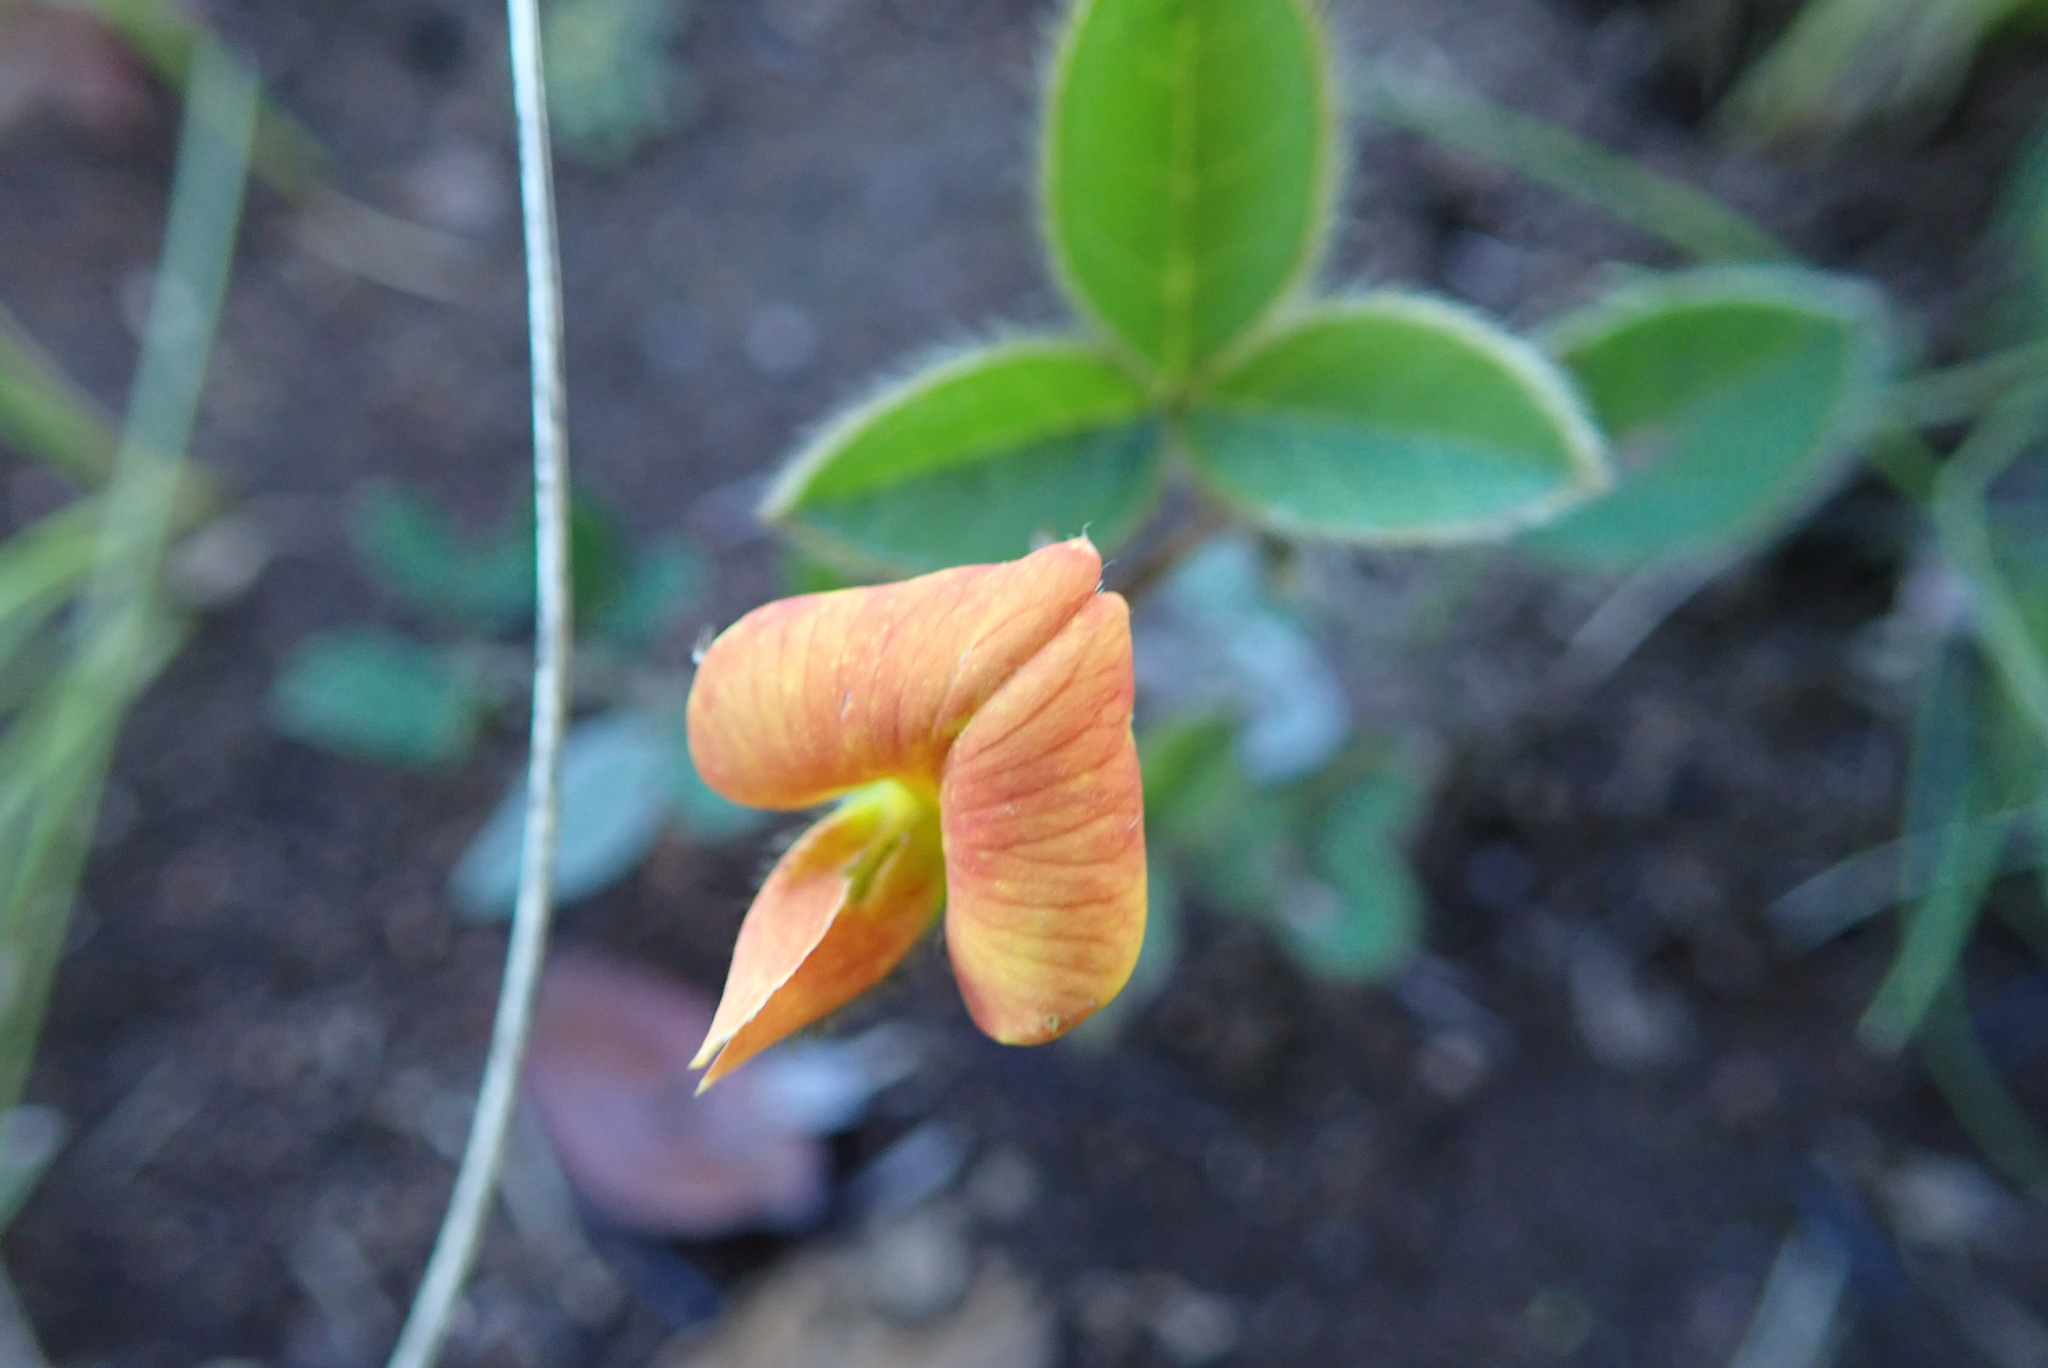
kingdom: Plantae
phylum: Tracheophyta
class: Magnoliopsida
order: Fabales
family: Fabaceae
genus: Argyrolobium
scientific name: Argyrolobium molle
